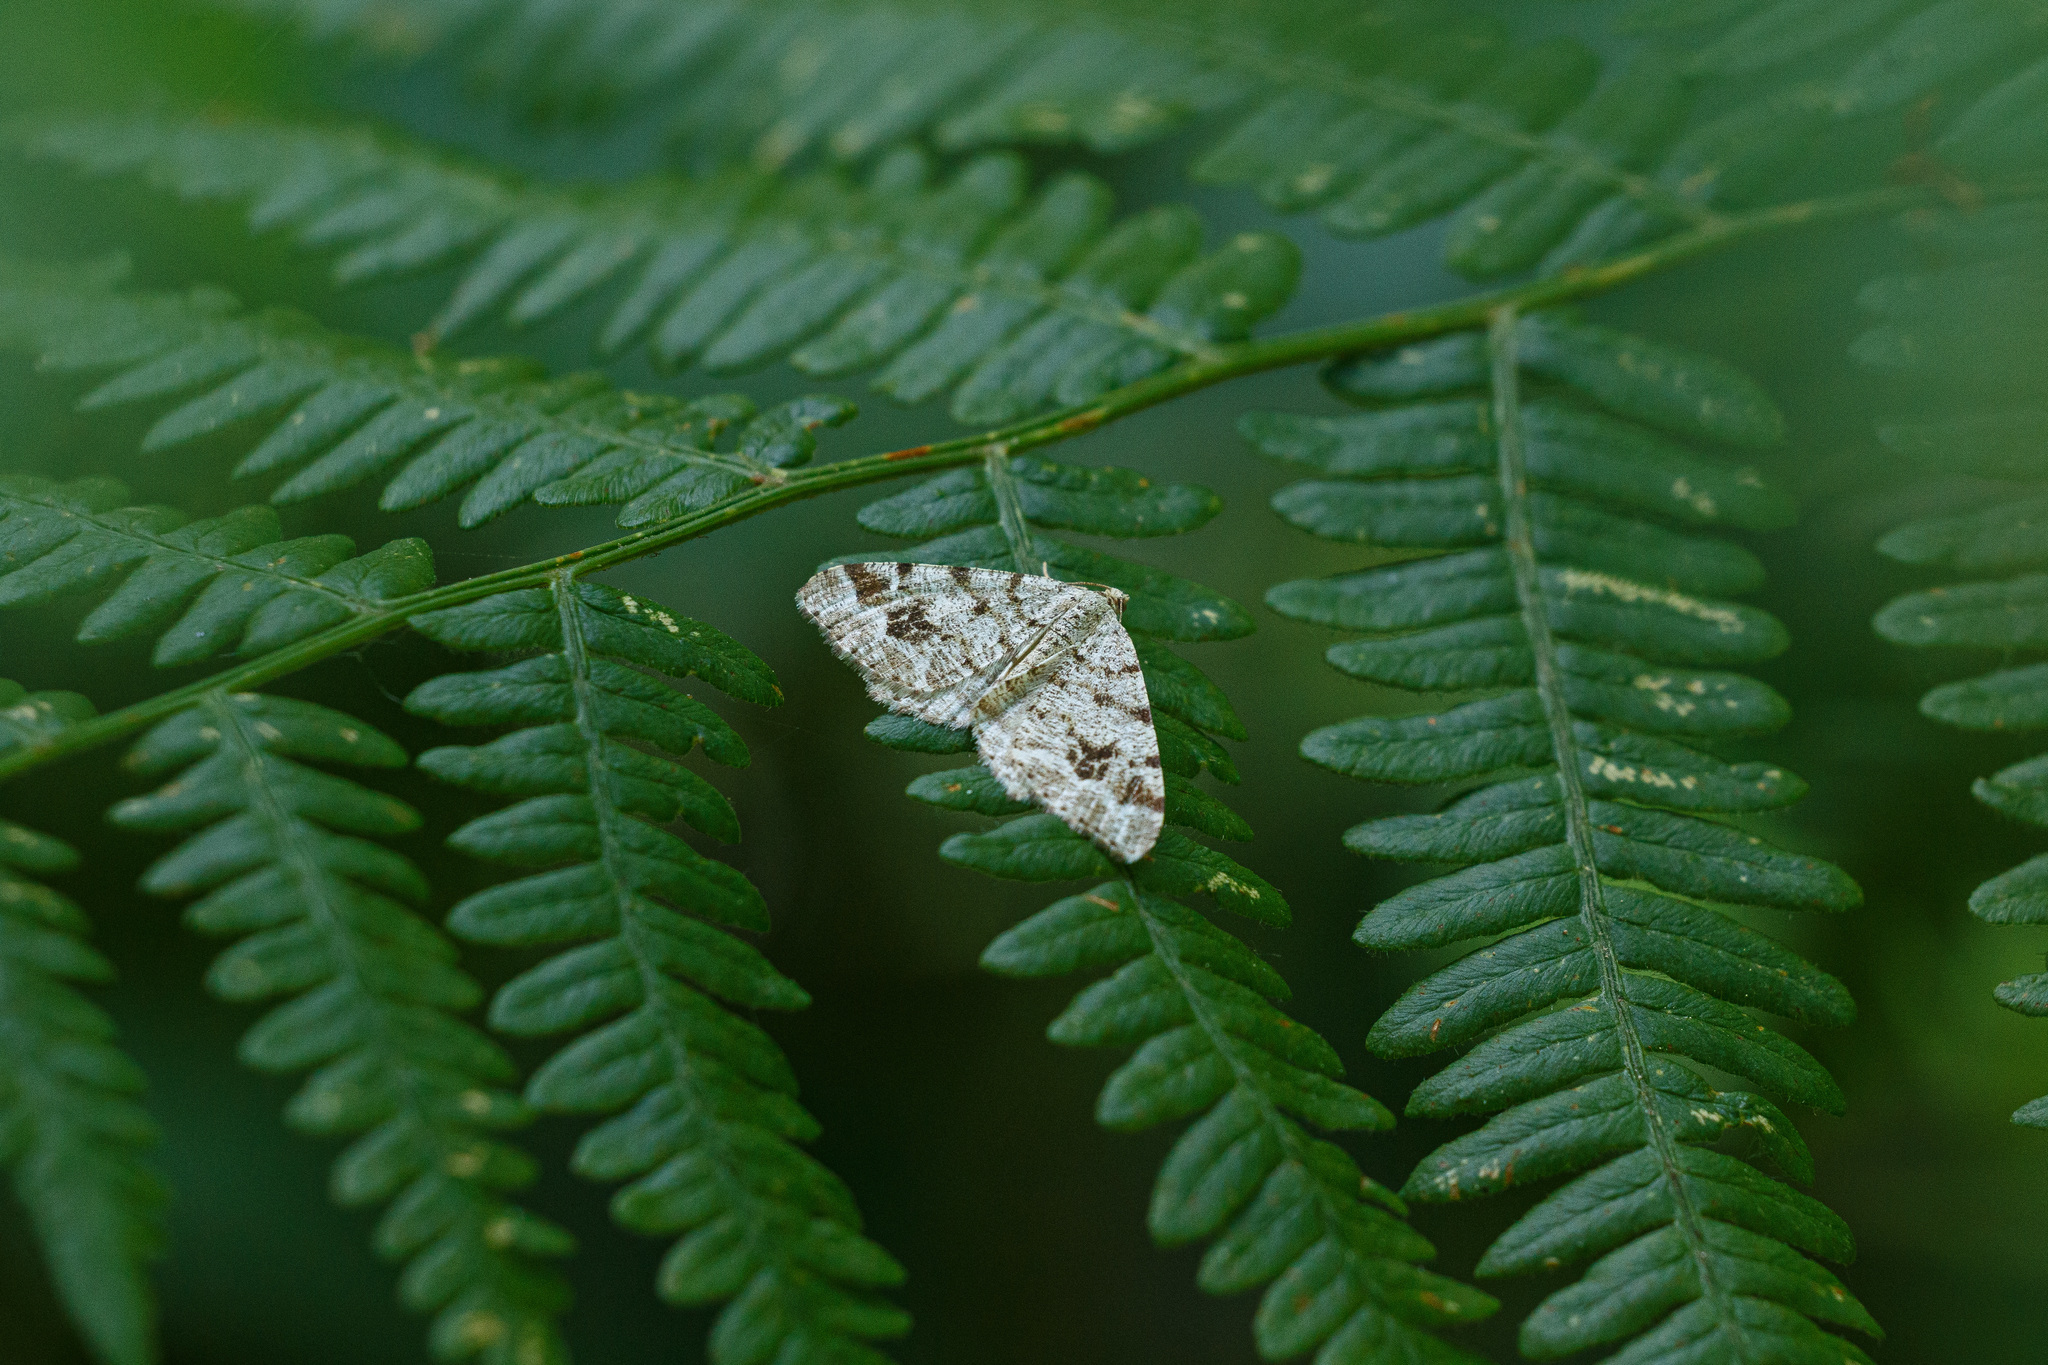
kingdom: Animalia
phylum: Arthropoda
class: Insecta
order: Lepidoptera
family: Geometridae
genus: Macaria
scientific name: Macaria signaria
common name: Dusky peacock
